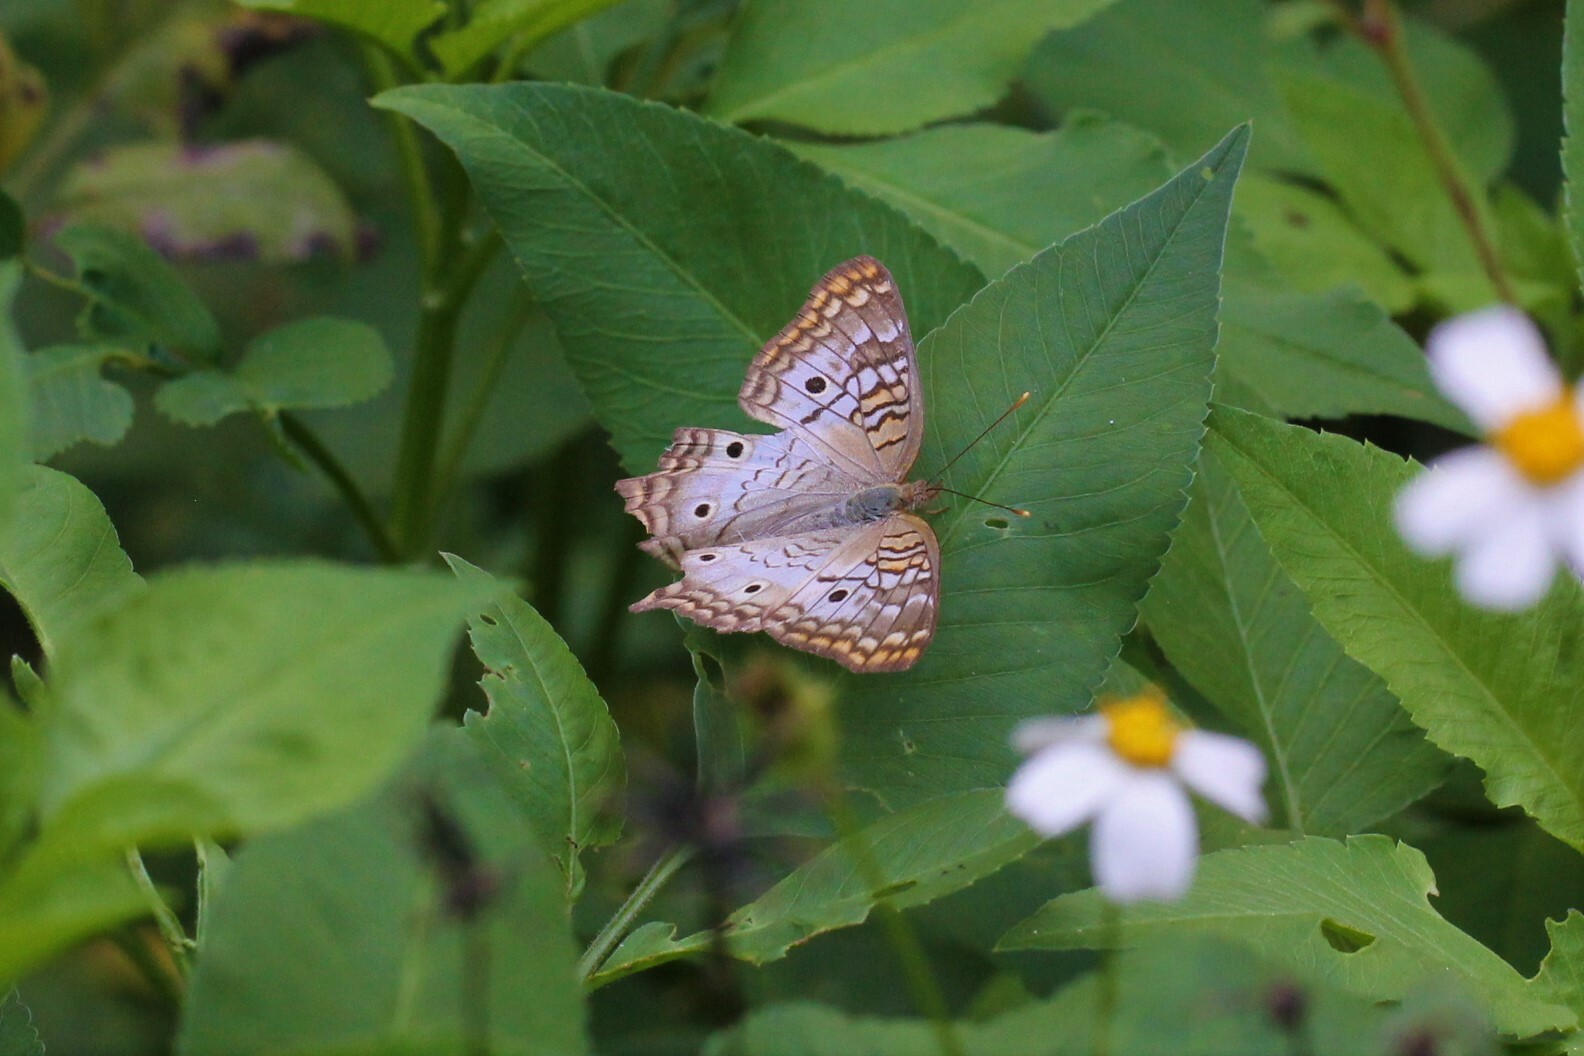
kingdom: Animalia
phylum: Arthropoda
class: Insecta
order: Lepidoptera
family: Nymphalidae
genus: Anartia
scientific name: Anartia jatrophae
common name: White peacock
